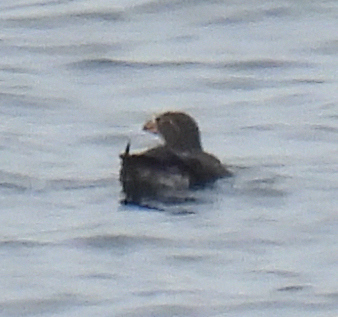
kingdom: Animalia
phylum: Chordata
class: Aves
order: Charadriiformes
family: Alcidae
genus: Cerorhinca
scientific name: Cerorhinca monocerata
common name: Rhinoceros auklet
